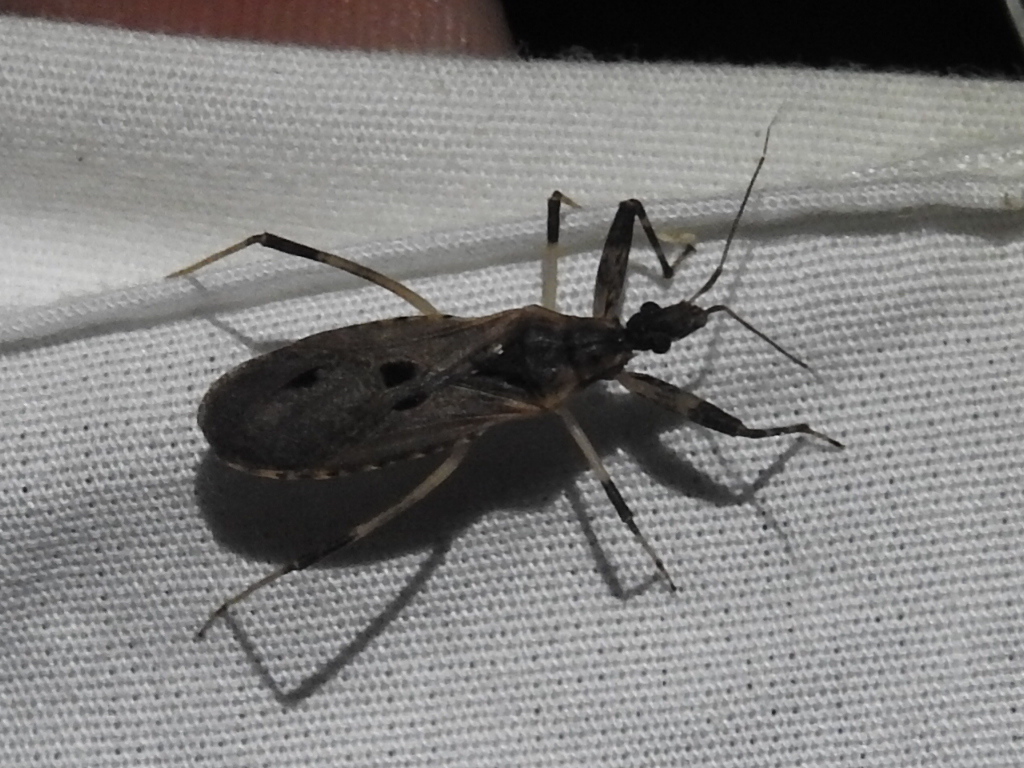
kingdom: Animalia
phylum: Arthropoda
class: Insecta
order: Hemiptera
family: Reduviidae
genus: Oncocephalus
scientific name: Oncocephalus geniculatus
